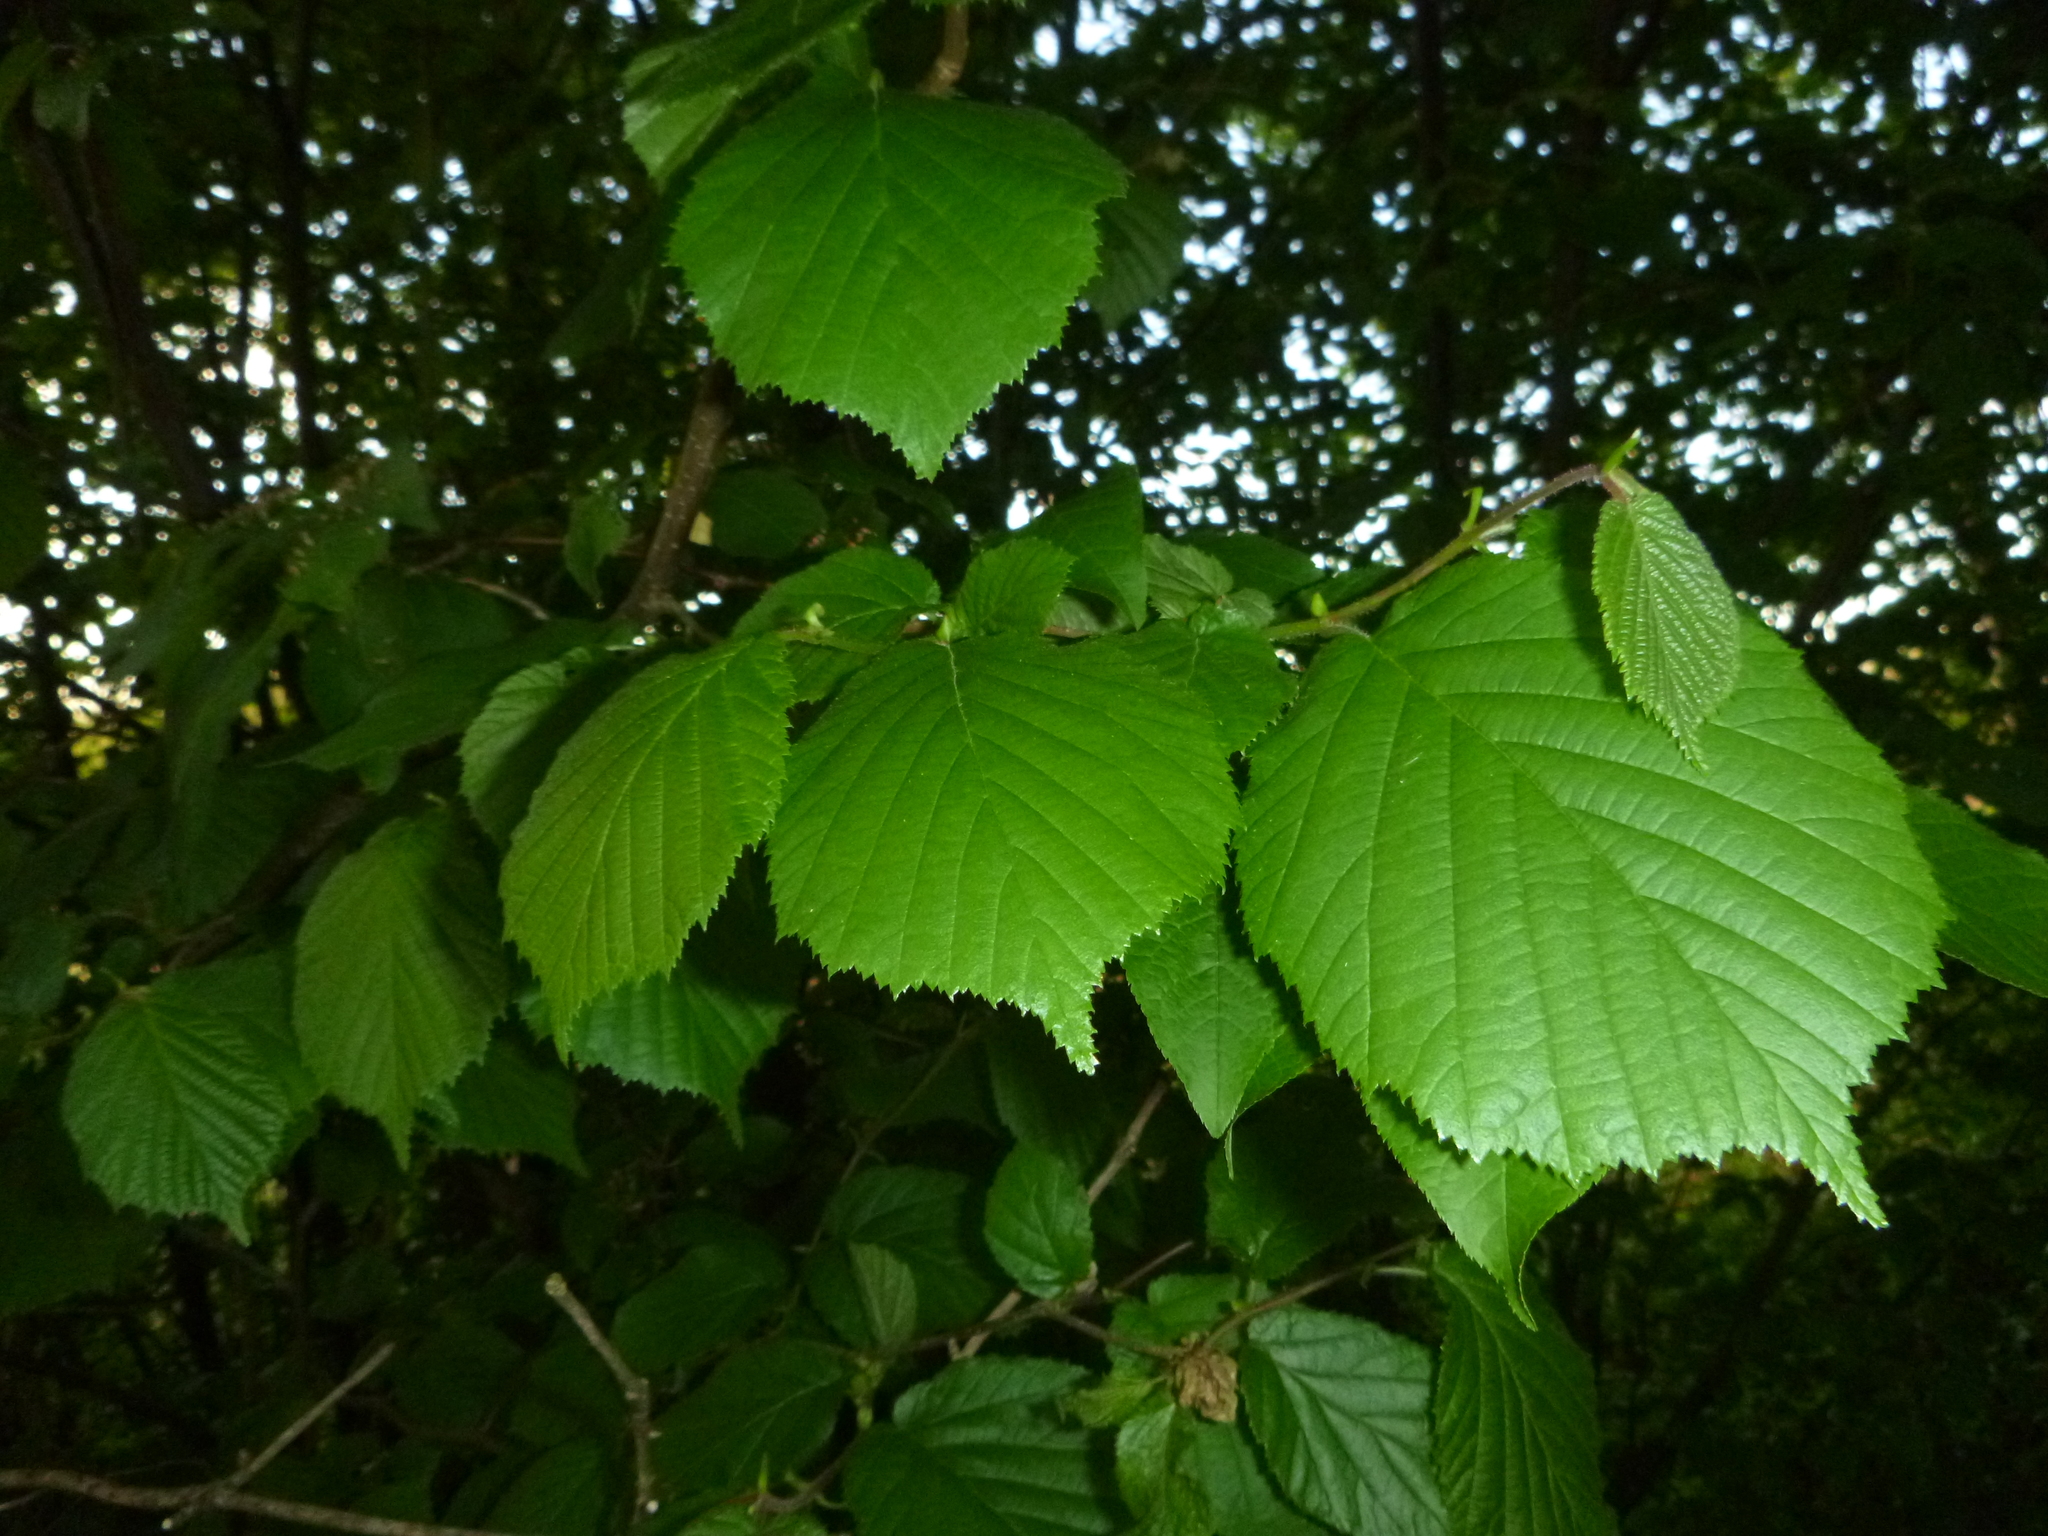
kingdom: Plantae
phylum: Tracheophyta
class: Magnoliopsida
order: Fagales
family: Betulaceae
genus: Corylus
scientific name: Corylus avellana
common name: European hazel
